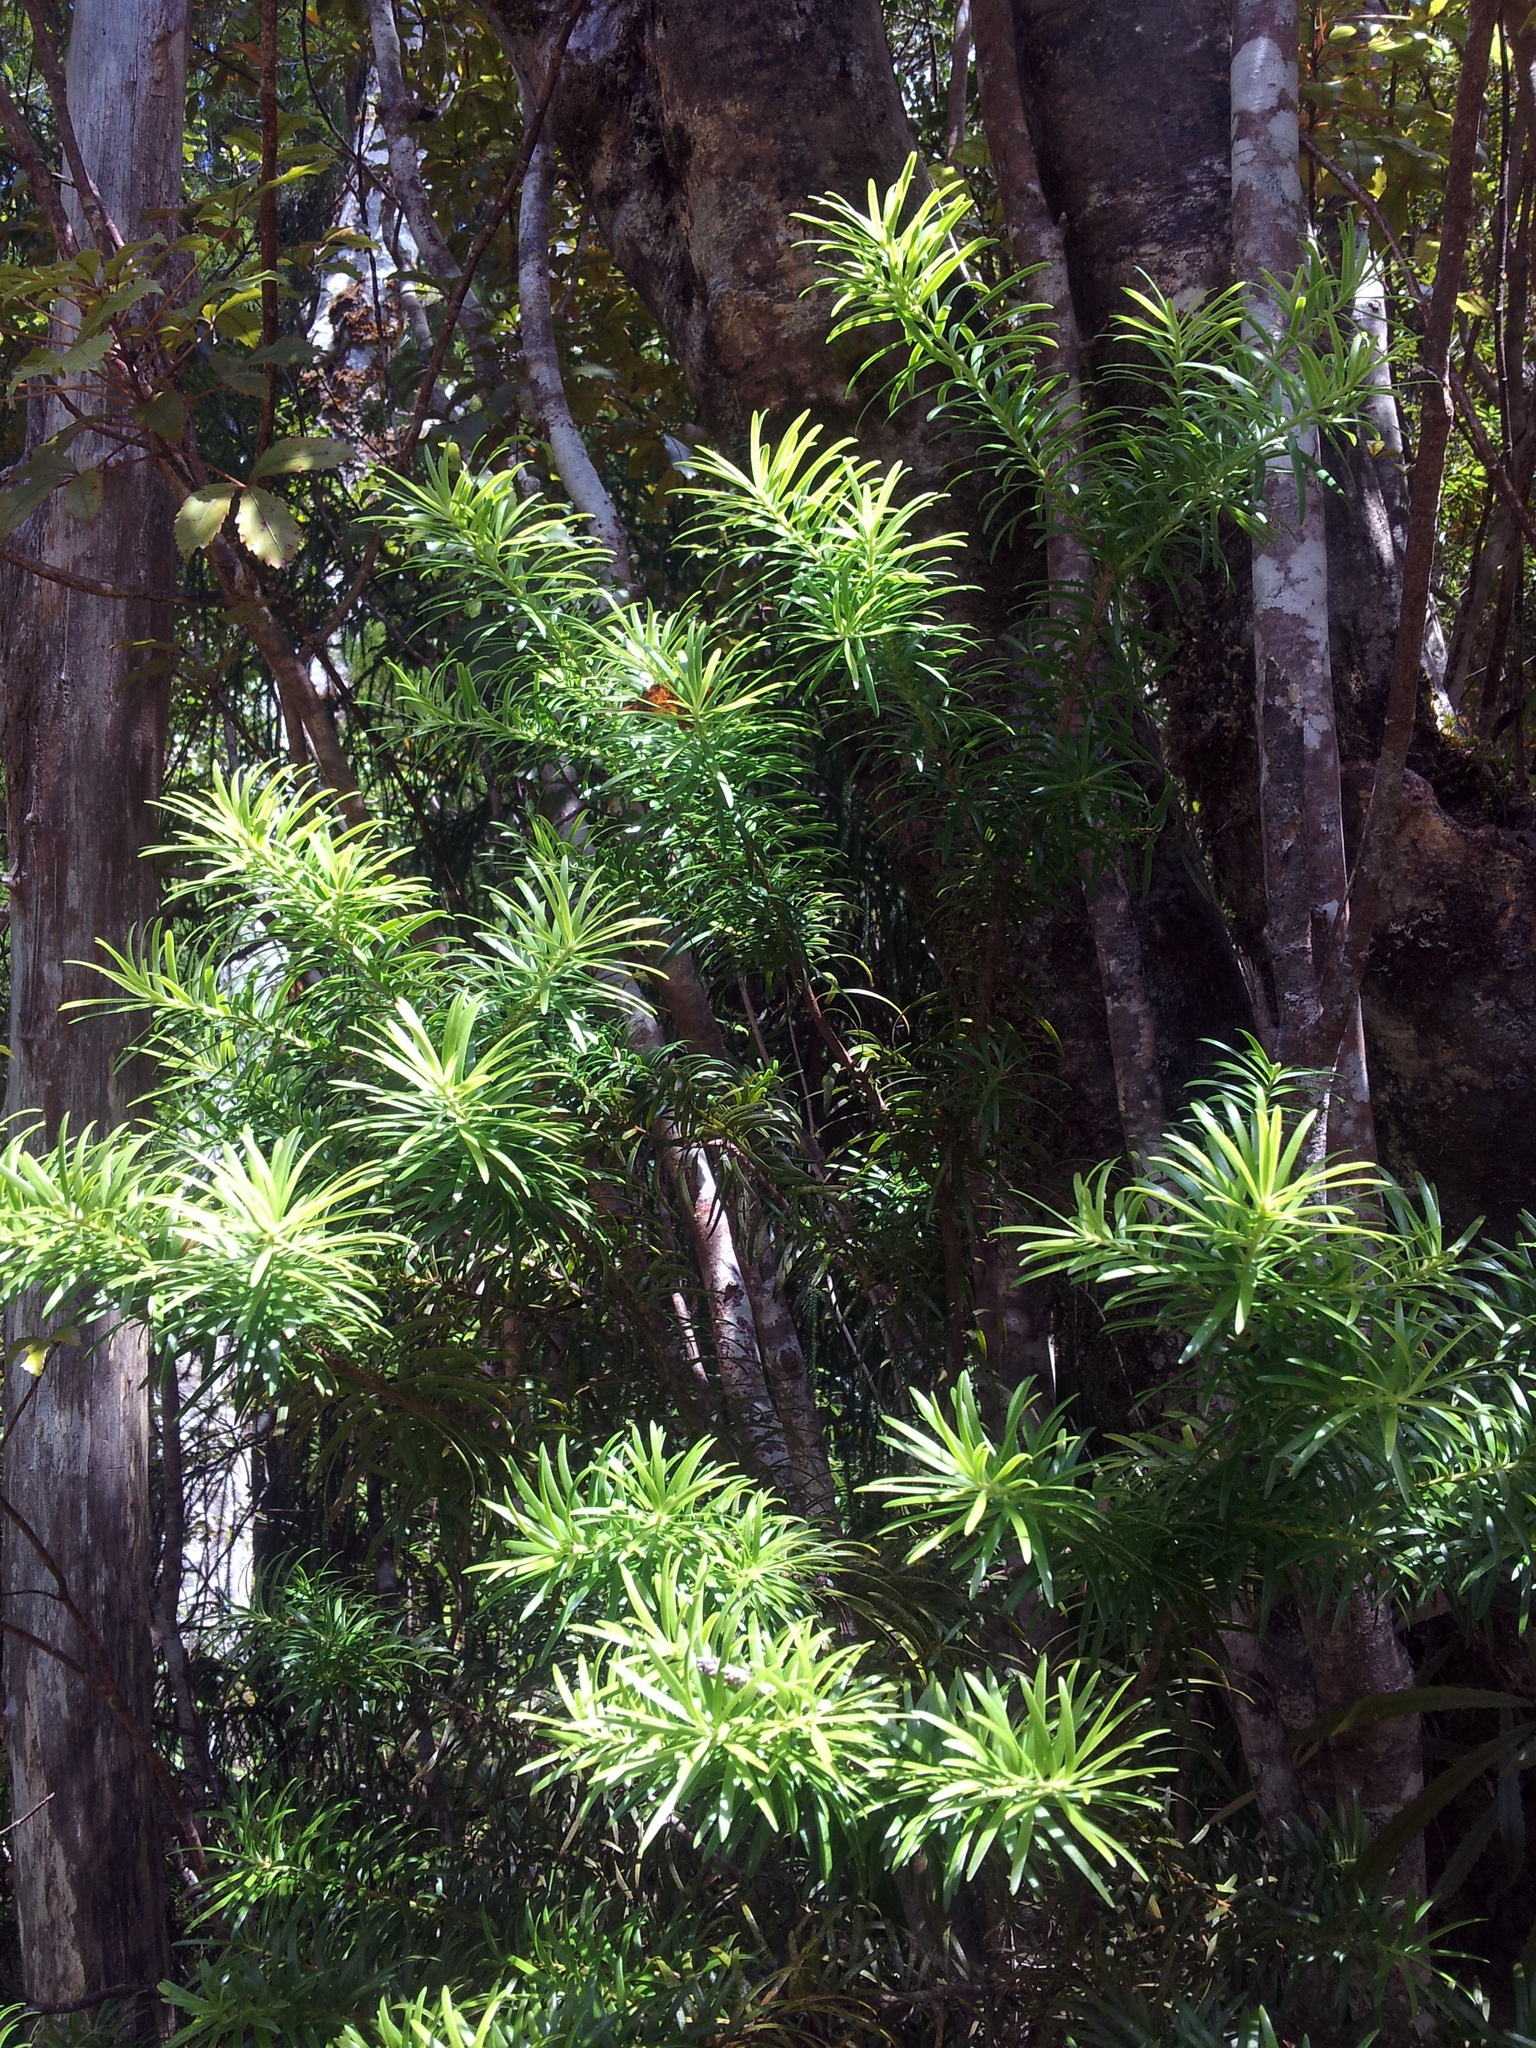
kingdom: Plantae
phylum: Tracheophyta
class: Pinopsida
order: Pinales
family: Podocarpaceae
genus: Halocarpus
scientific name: Halocarpus kirkii
